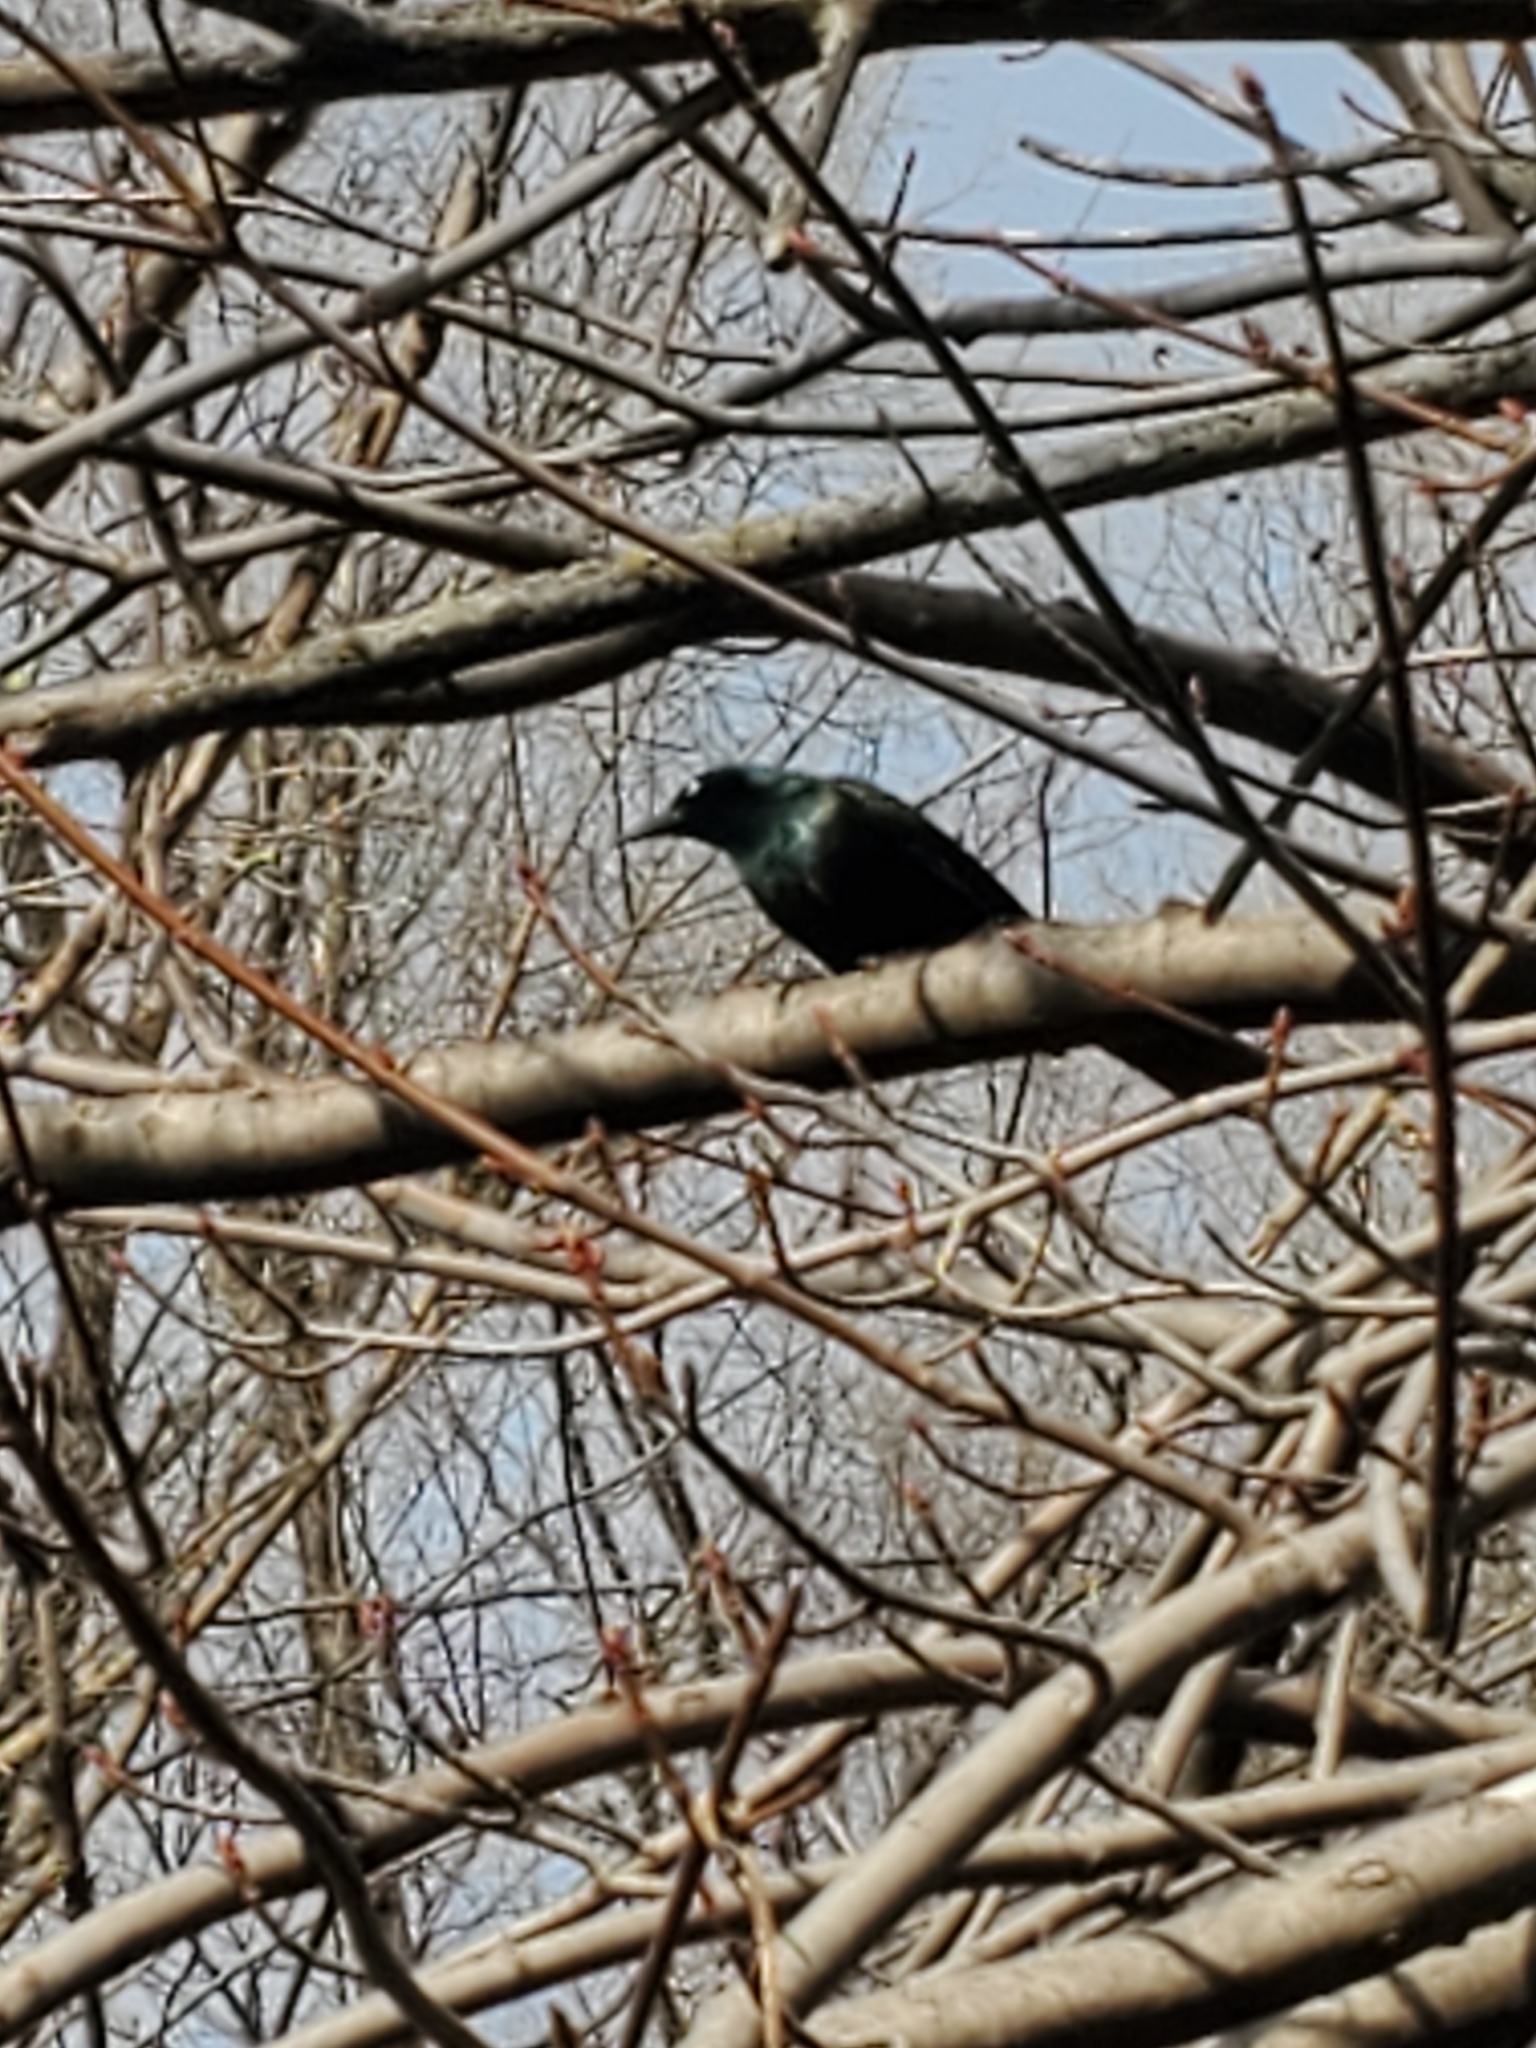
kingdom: Animalia
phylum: Chordata
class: Aves
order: Passeriformes
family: Icteridae
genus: Quiscalus
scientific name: Quiscalus quiscula
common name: Common grackle
